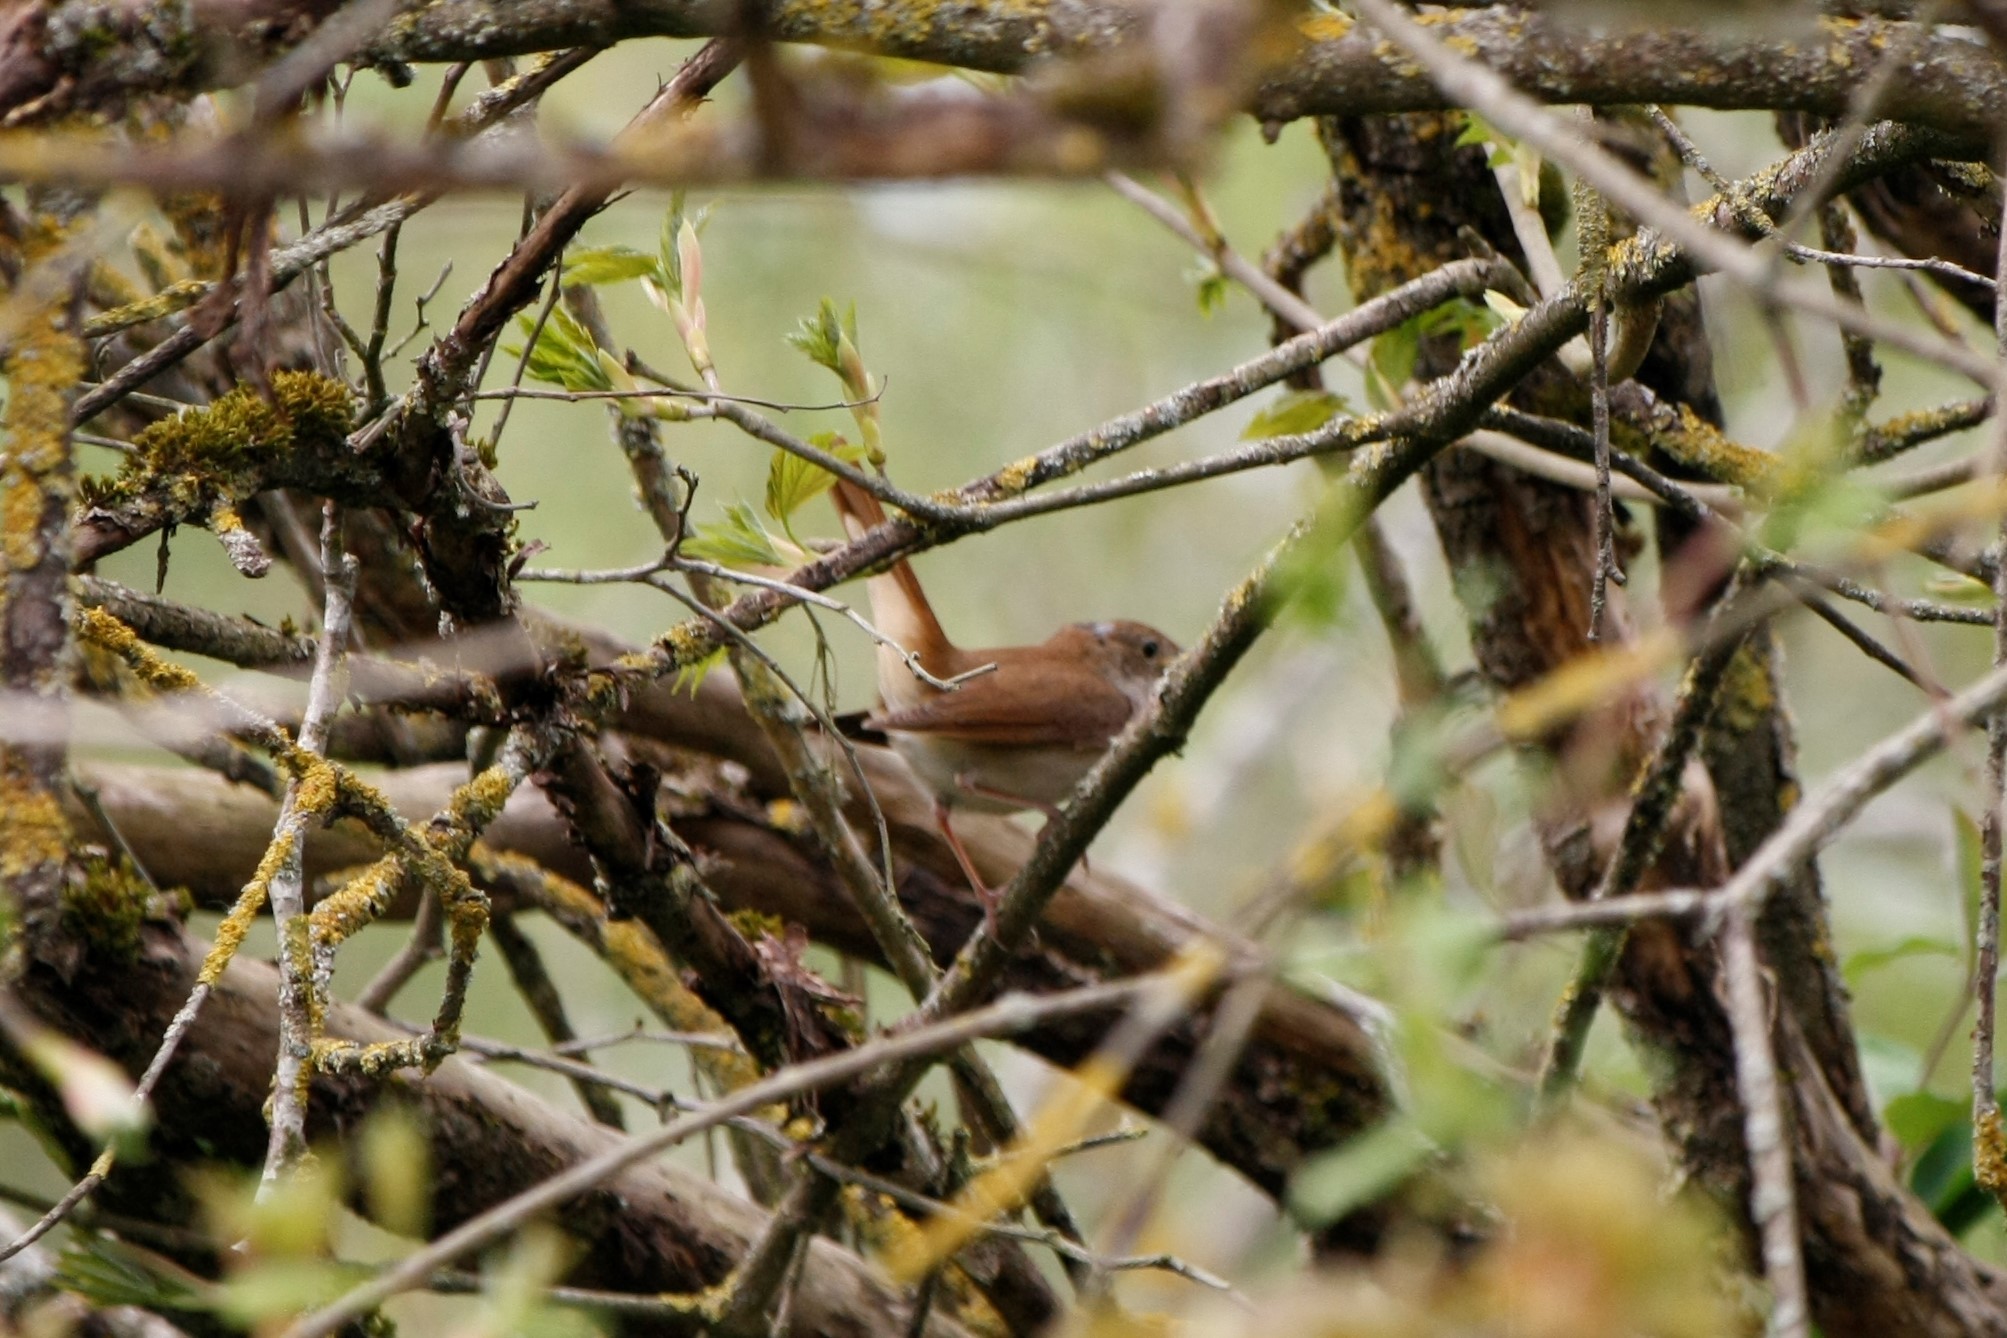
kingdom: Animalia
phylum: Chordata
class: Aves
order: Passeriformes
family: Muscicapidae
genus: Luscinia
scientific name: Luscinia megarhynchos
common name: Common nightingale
